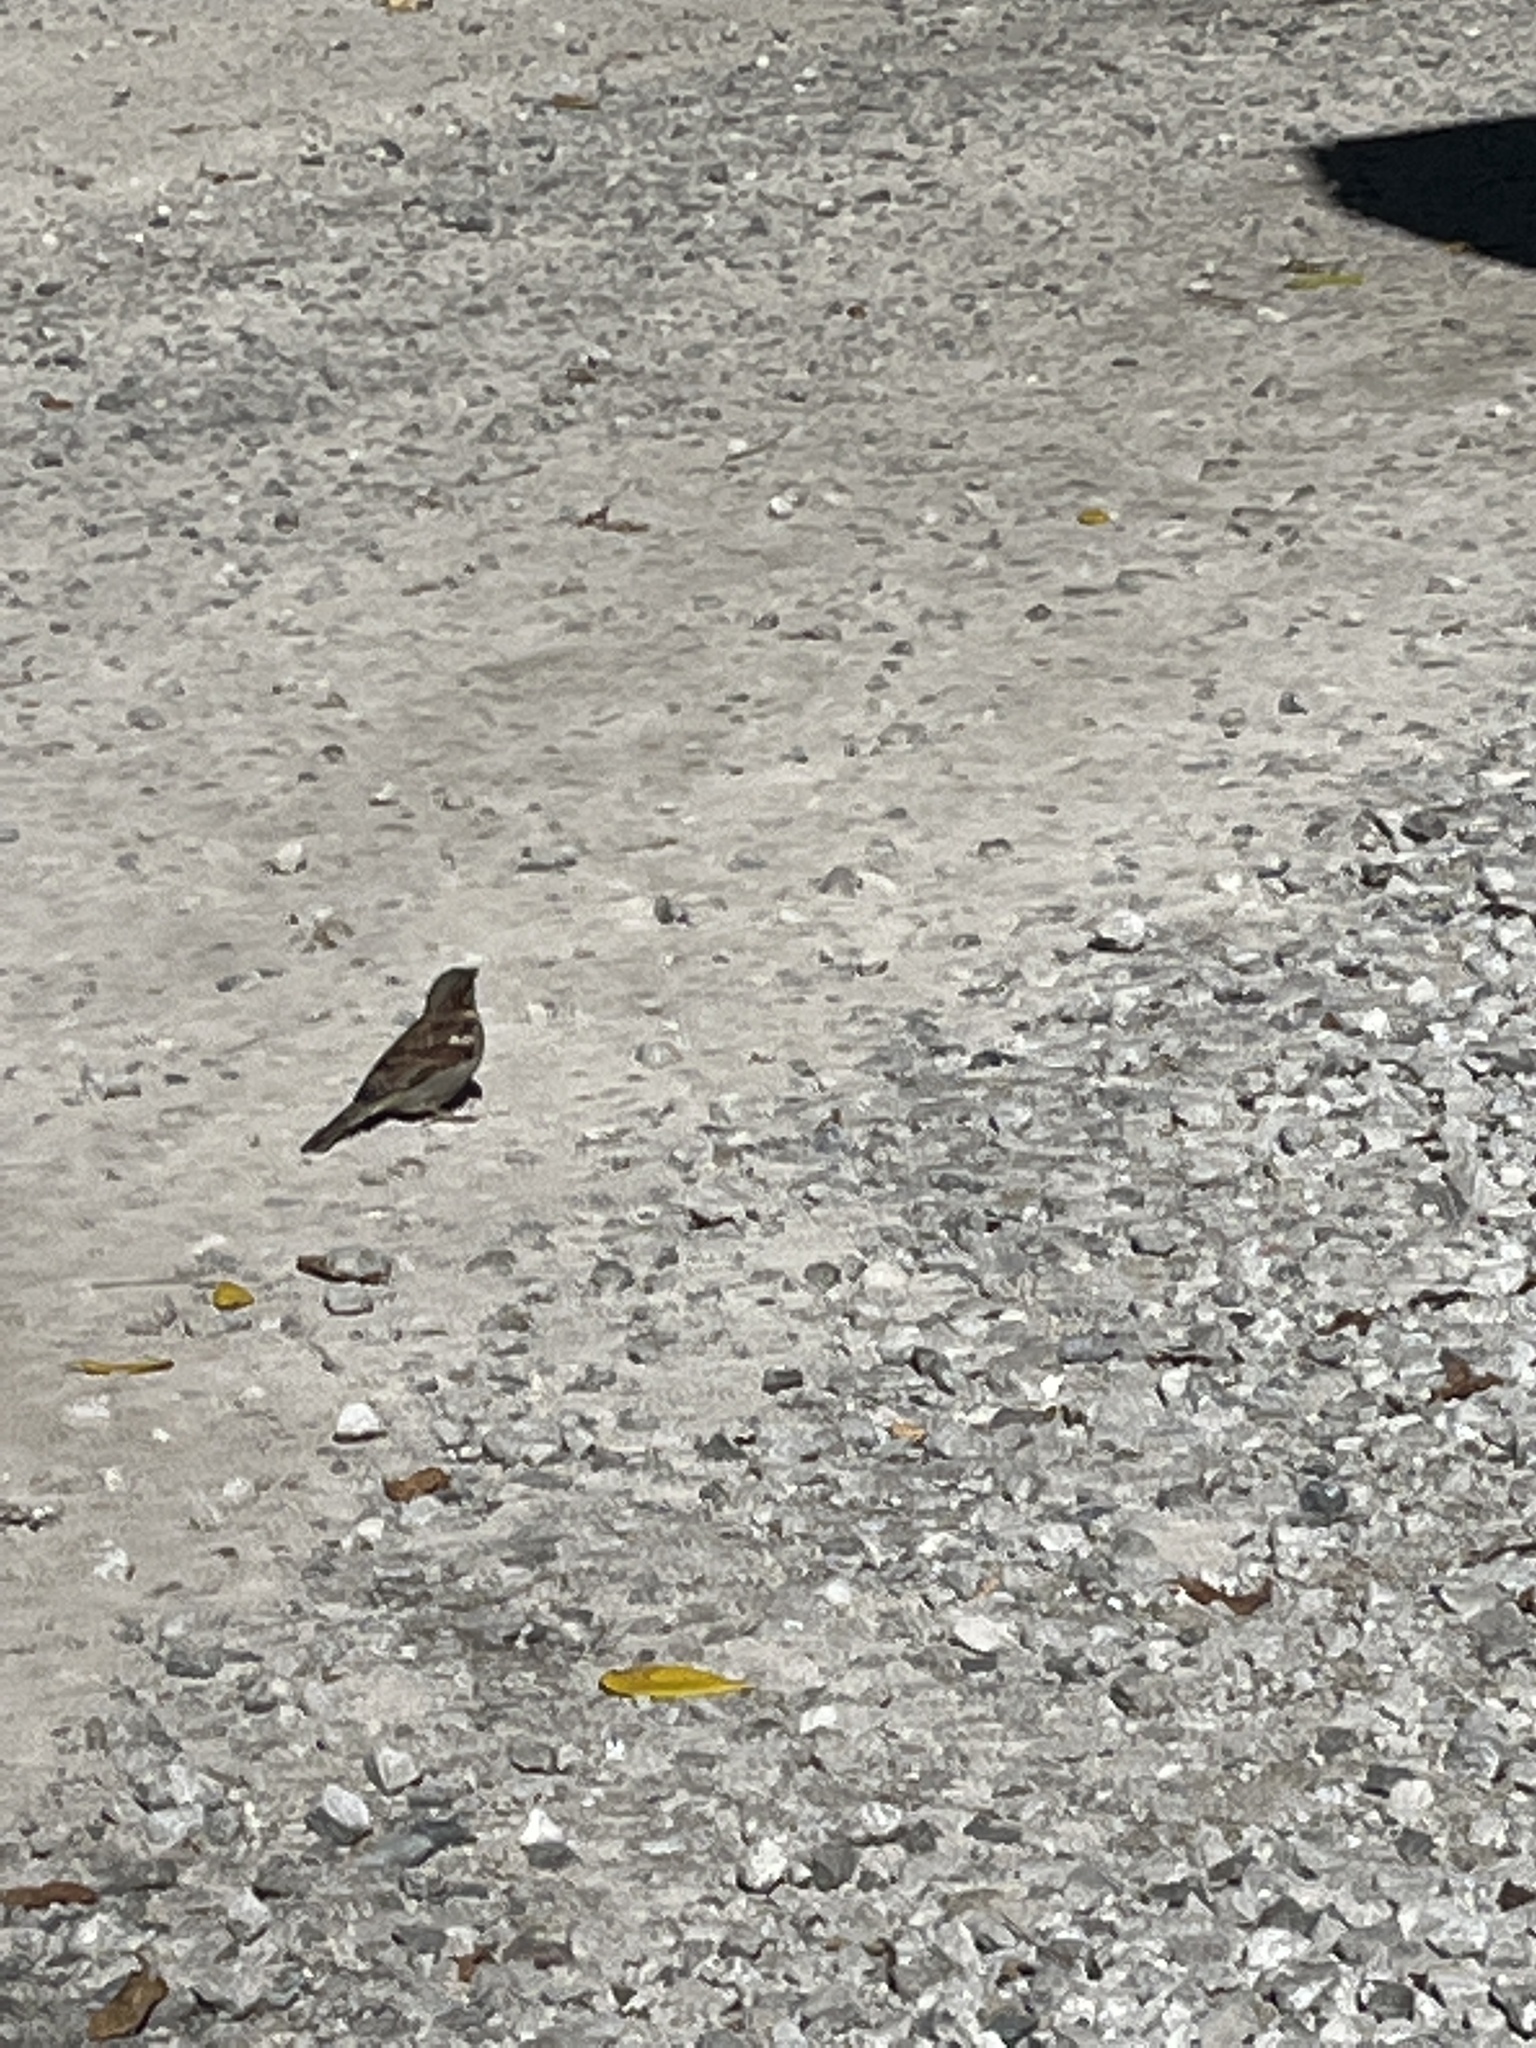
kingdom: Animalia
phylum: Chordata
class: Aves
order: Passeriformes
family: Passeridae
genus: Passer
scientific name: Passer domesticus
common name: House sparrow
